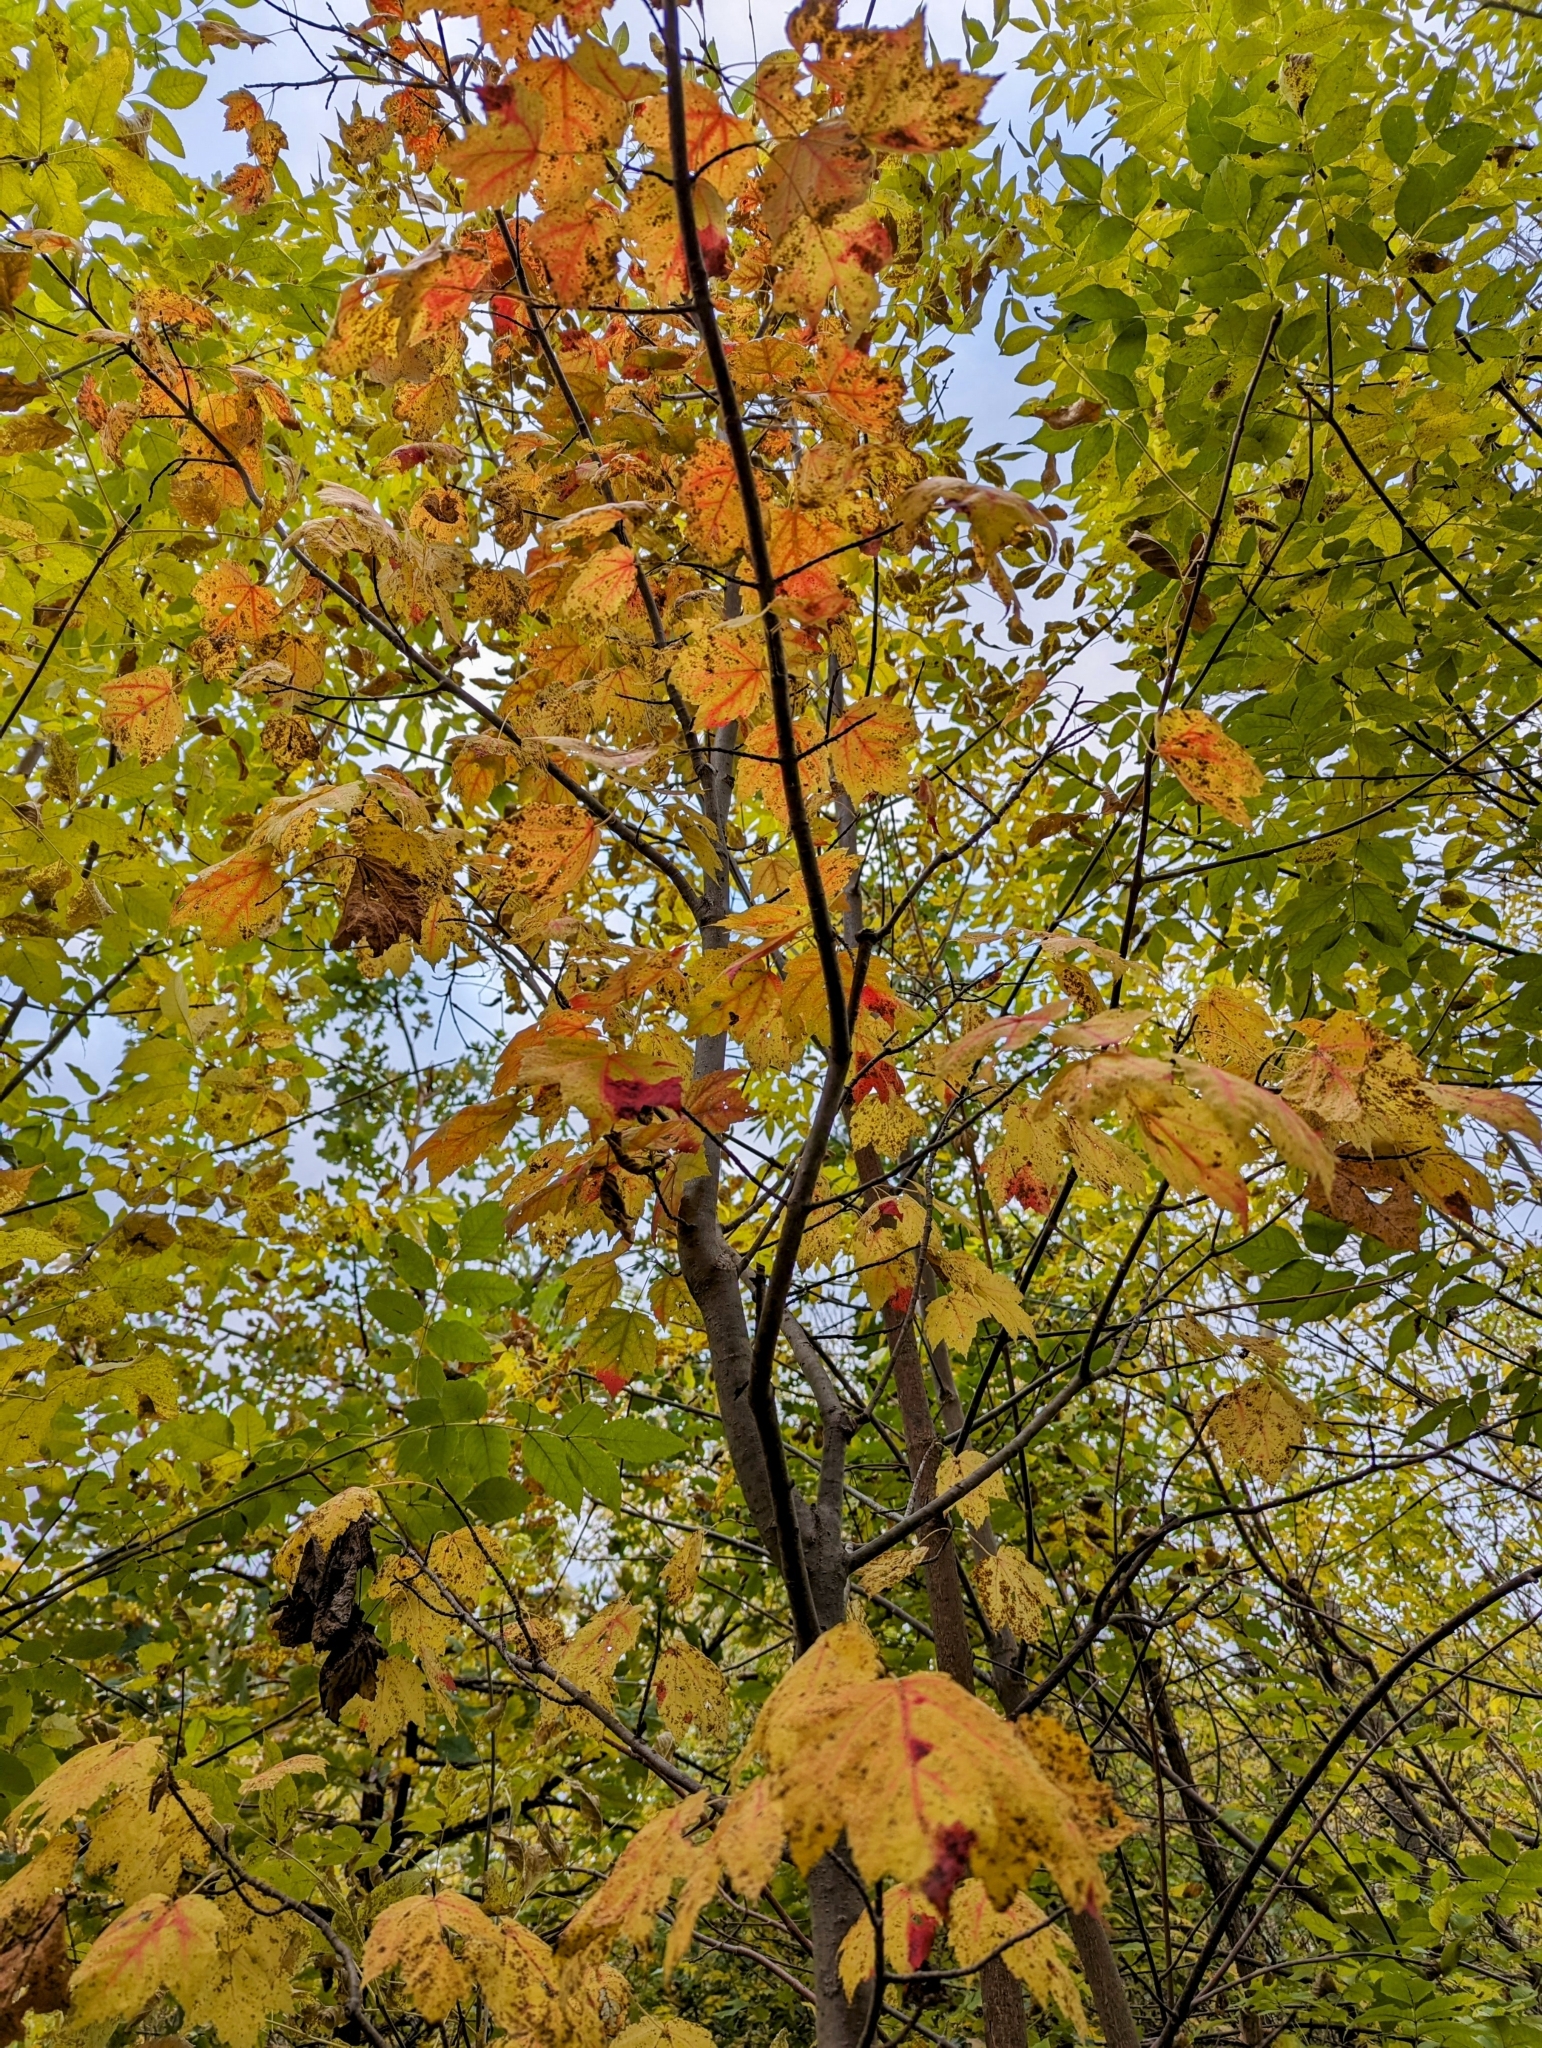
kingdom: Plantae
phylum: Tracheophyta
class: Magnoliopsida
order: Sapindales
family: Sapindaceae
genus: Acer
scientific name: Acer rubrum
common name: Red maple
